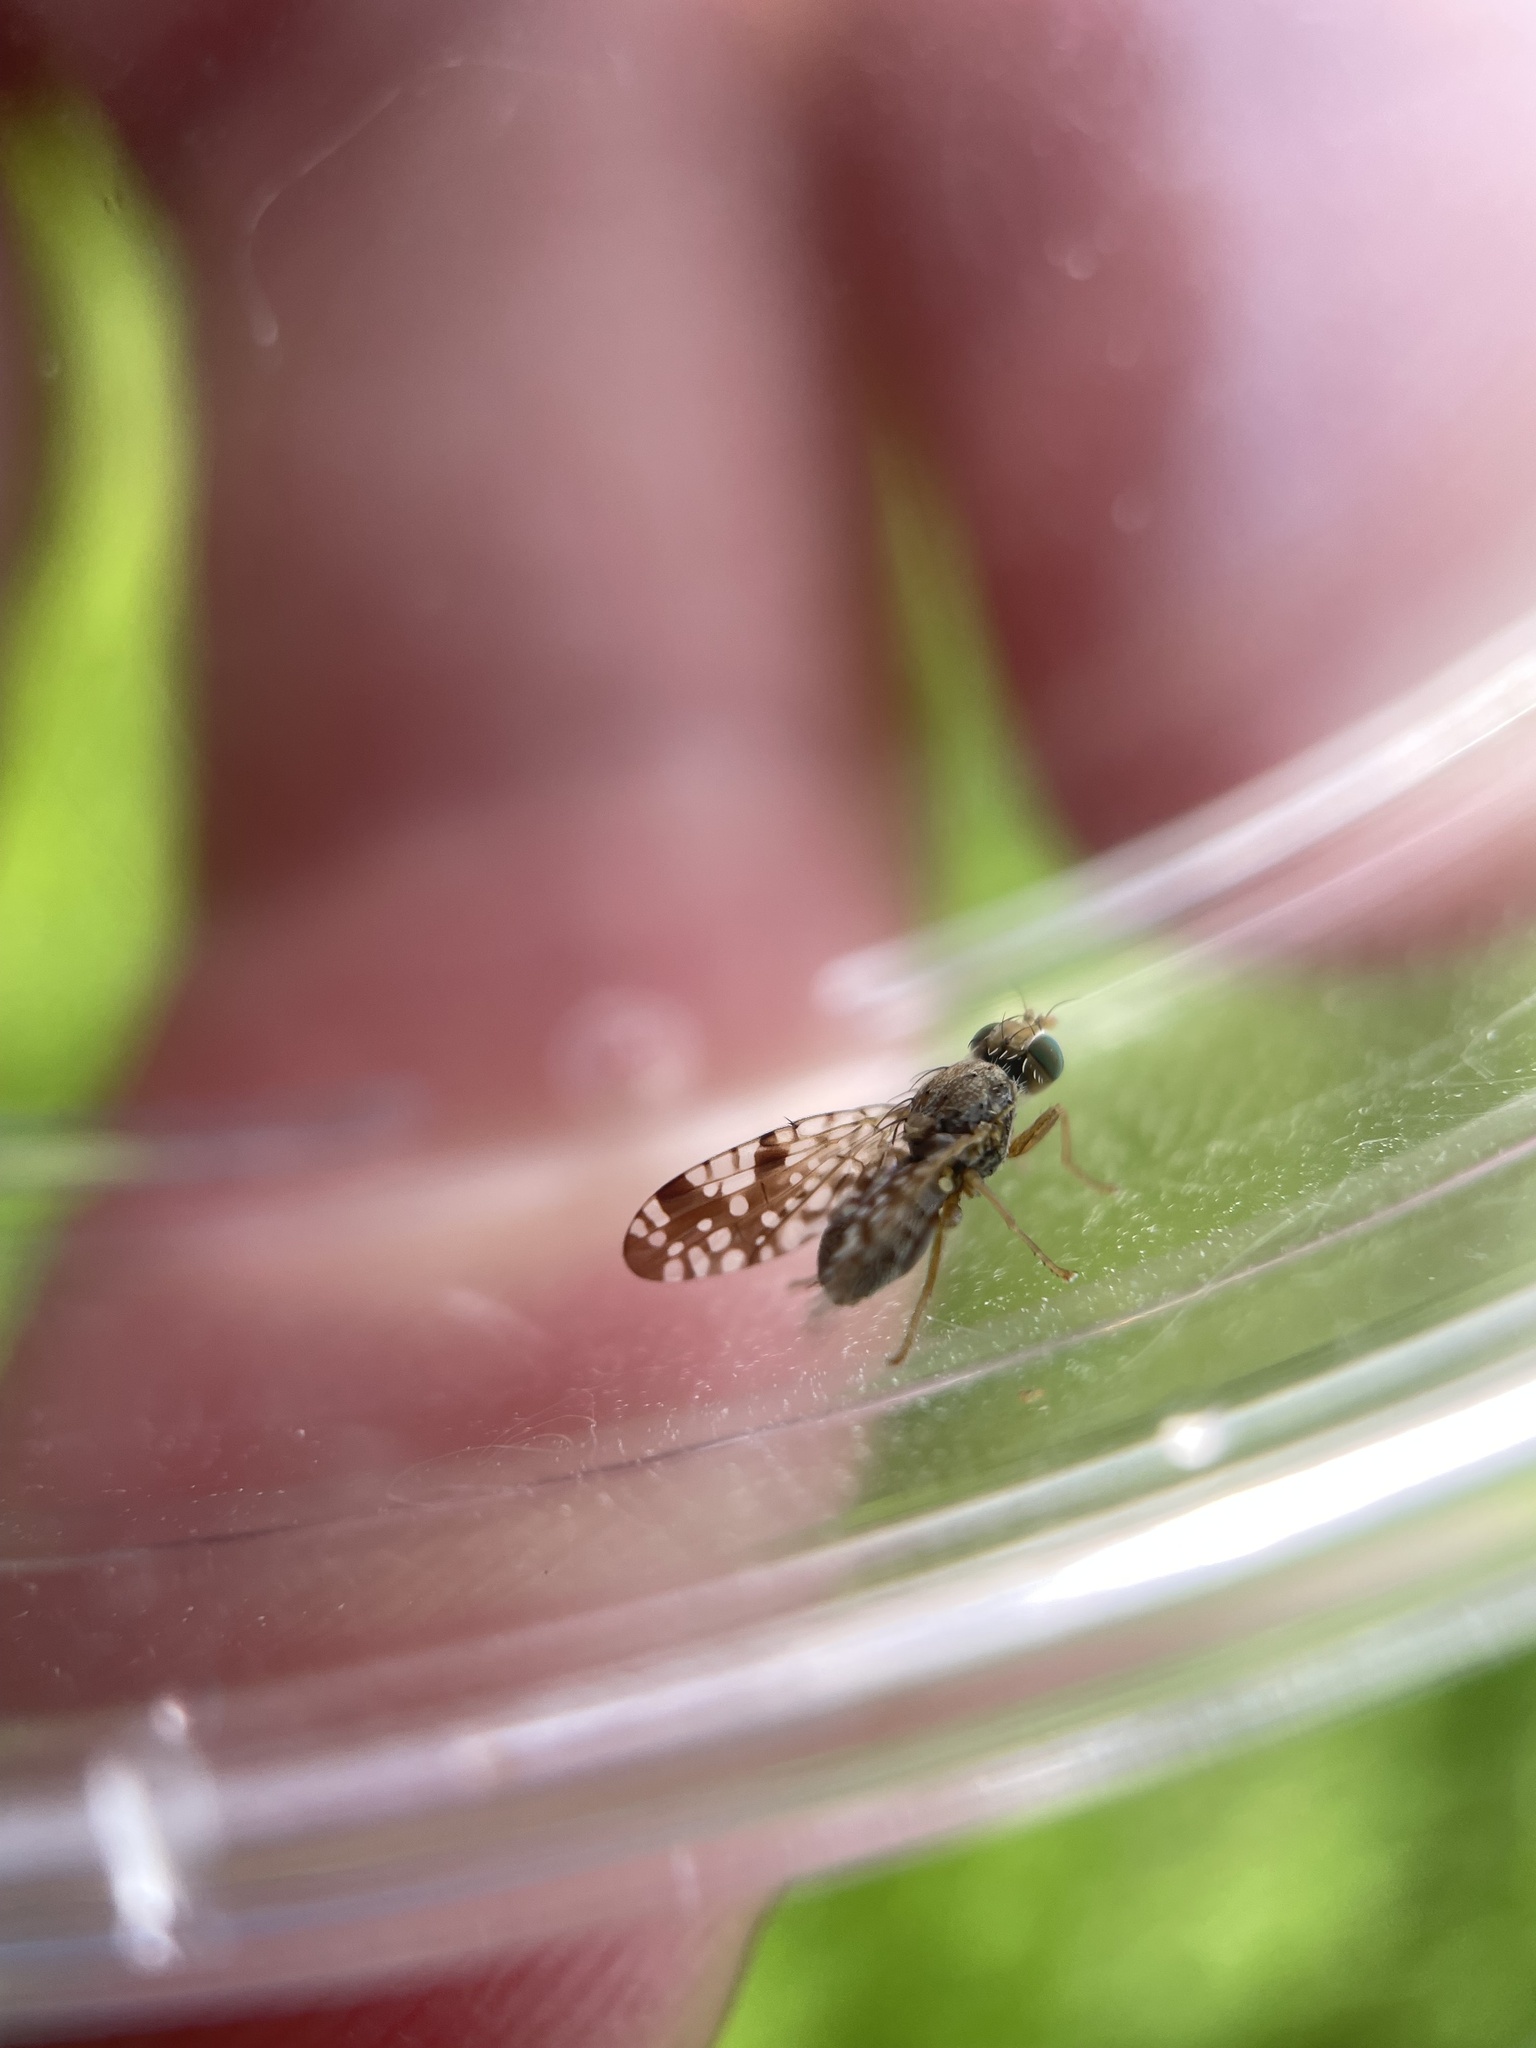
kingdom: Animalia
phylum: Arthropoda
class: Insecta
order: Diptera
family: Tephritidae
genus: Neotephritis
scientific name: Neotephritis finalis
